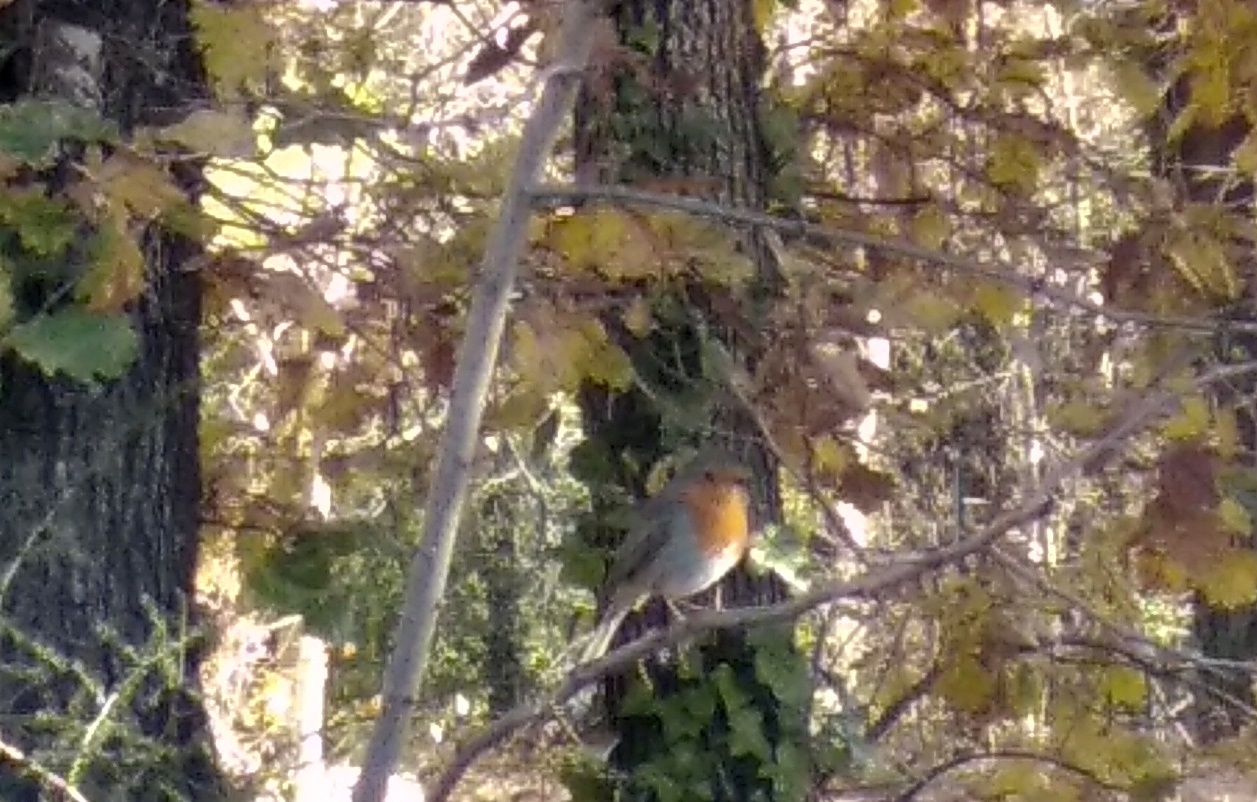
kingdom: Animalia
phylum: Chordata
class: Aves
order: Passeriformes
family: Muscicapidae
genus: Erithacus
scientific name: Erithacus rubecula
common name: European robin
